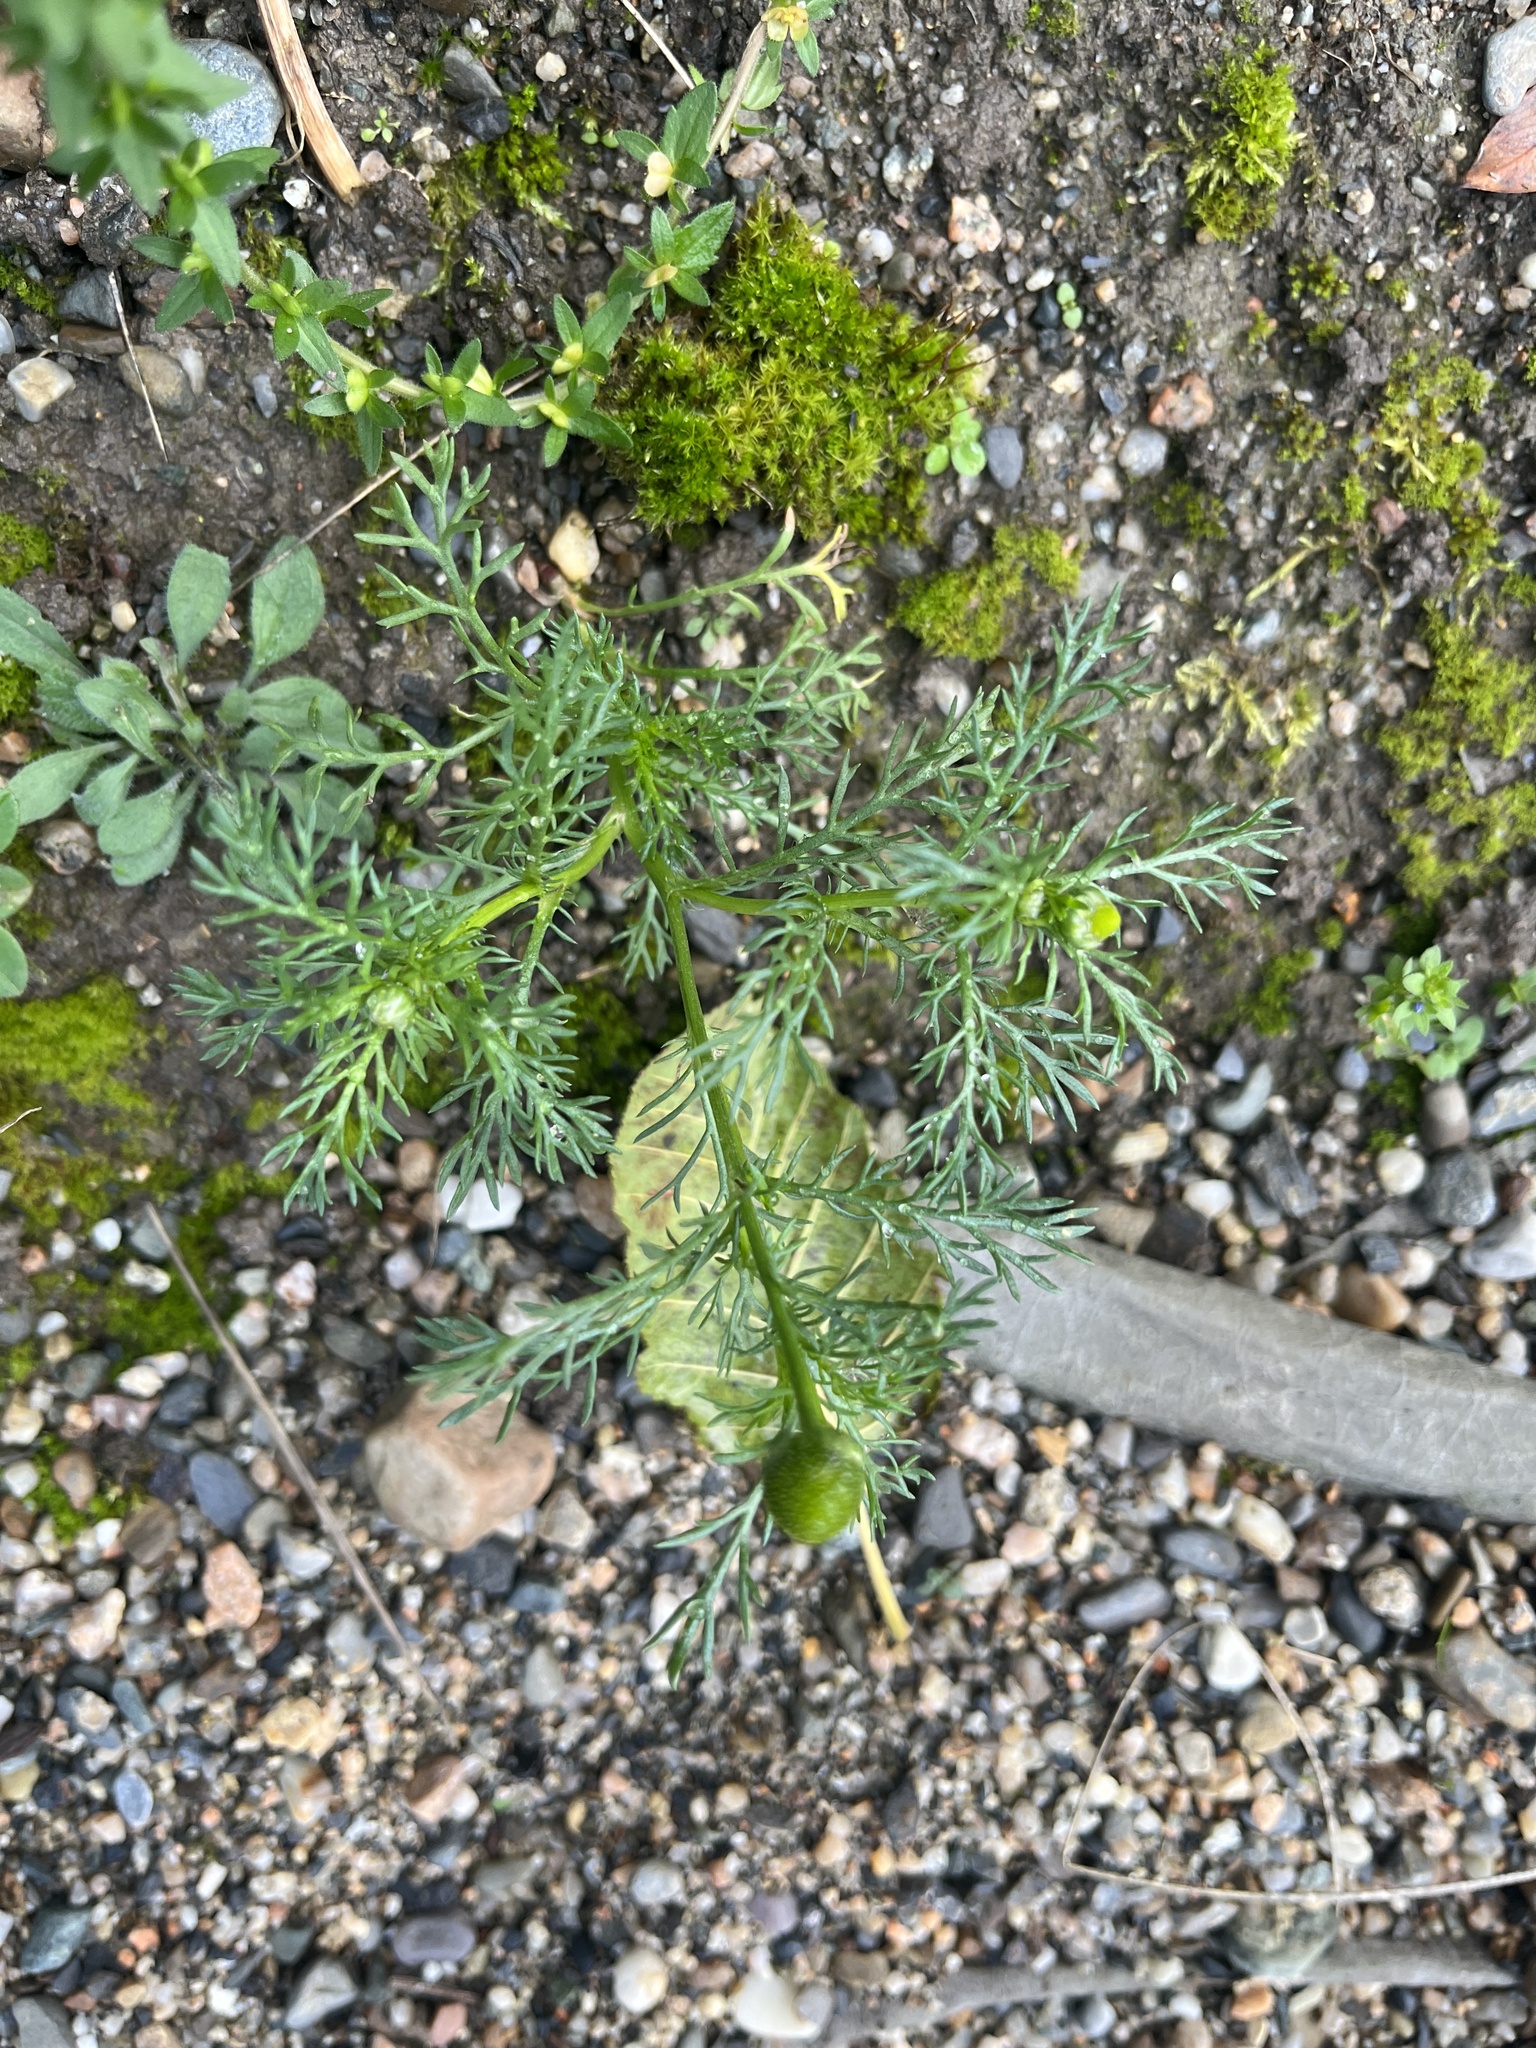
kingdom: Plantae
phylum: Tracheophyta
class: Magnoliopsida
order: Asterales
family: Asteraceae
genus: Matricaria
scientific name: Matricaria discoidea
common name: Disc mayweed
